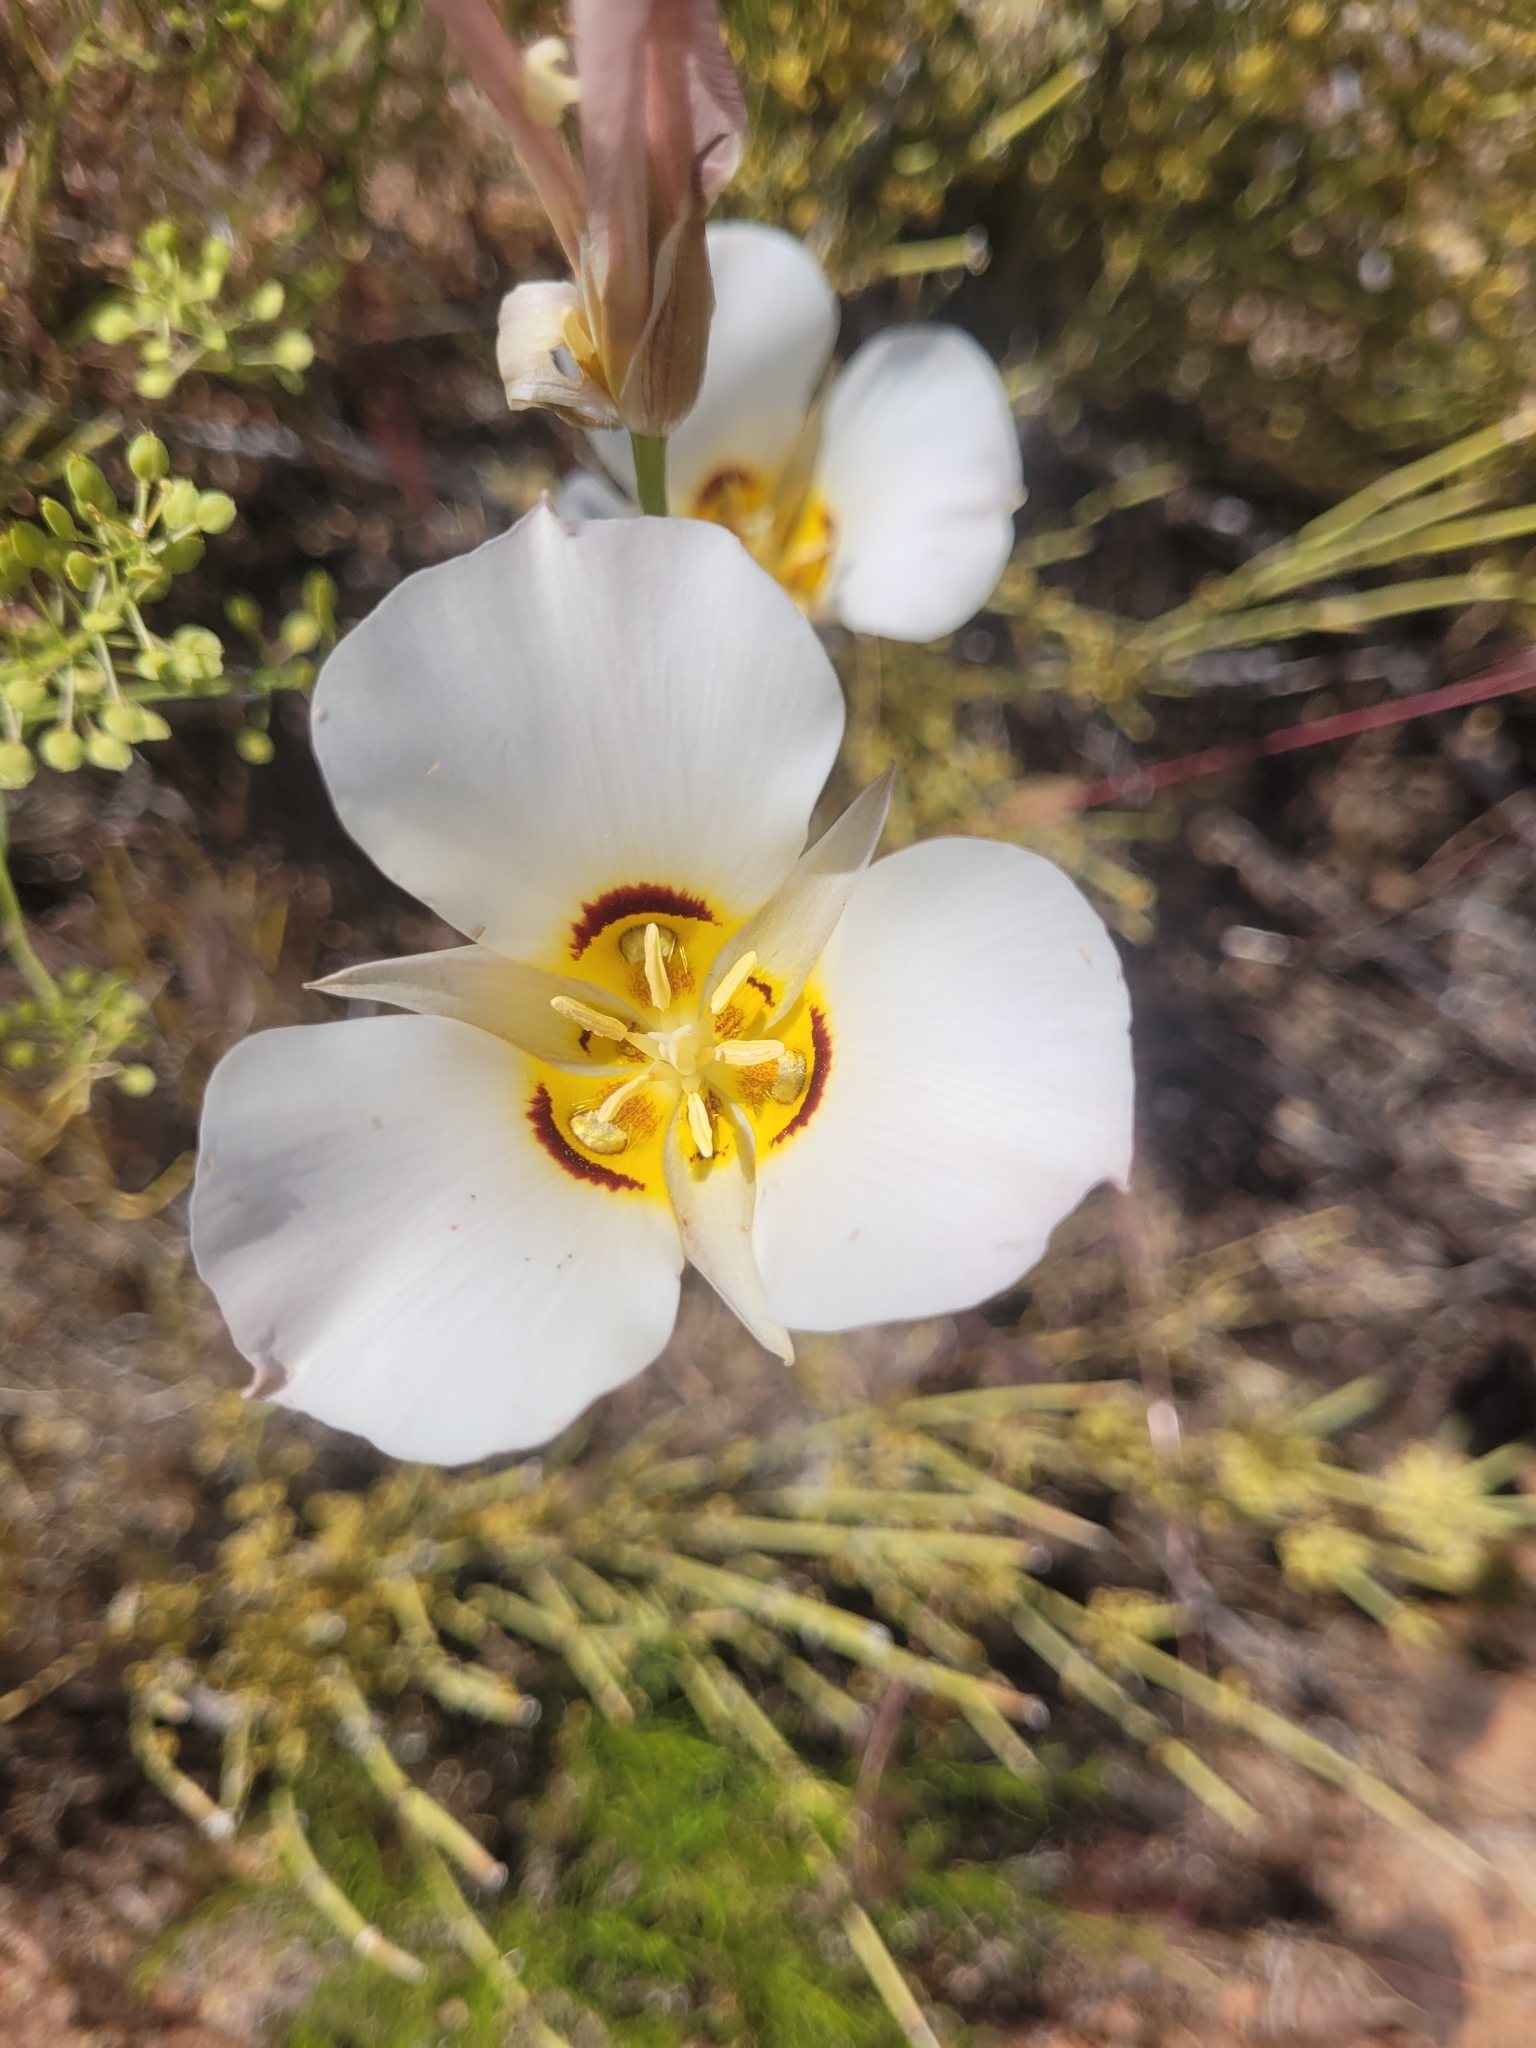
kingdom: Plantae
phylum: Tracheophyta
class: Liliopsida
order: Liliales
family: Liliaceae
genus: Calochortus
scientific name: Calochortus nuttallii
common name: Sego-lily
